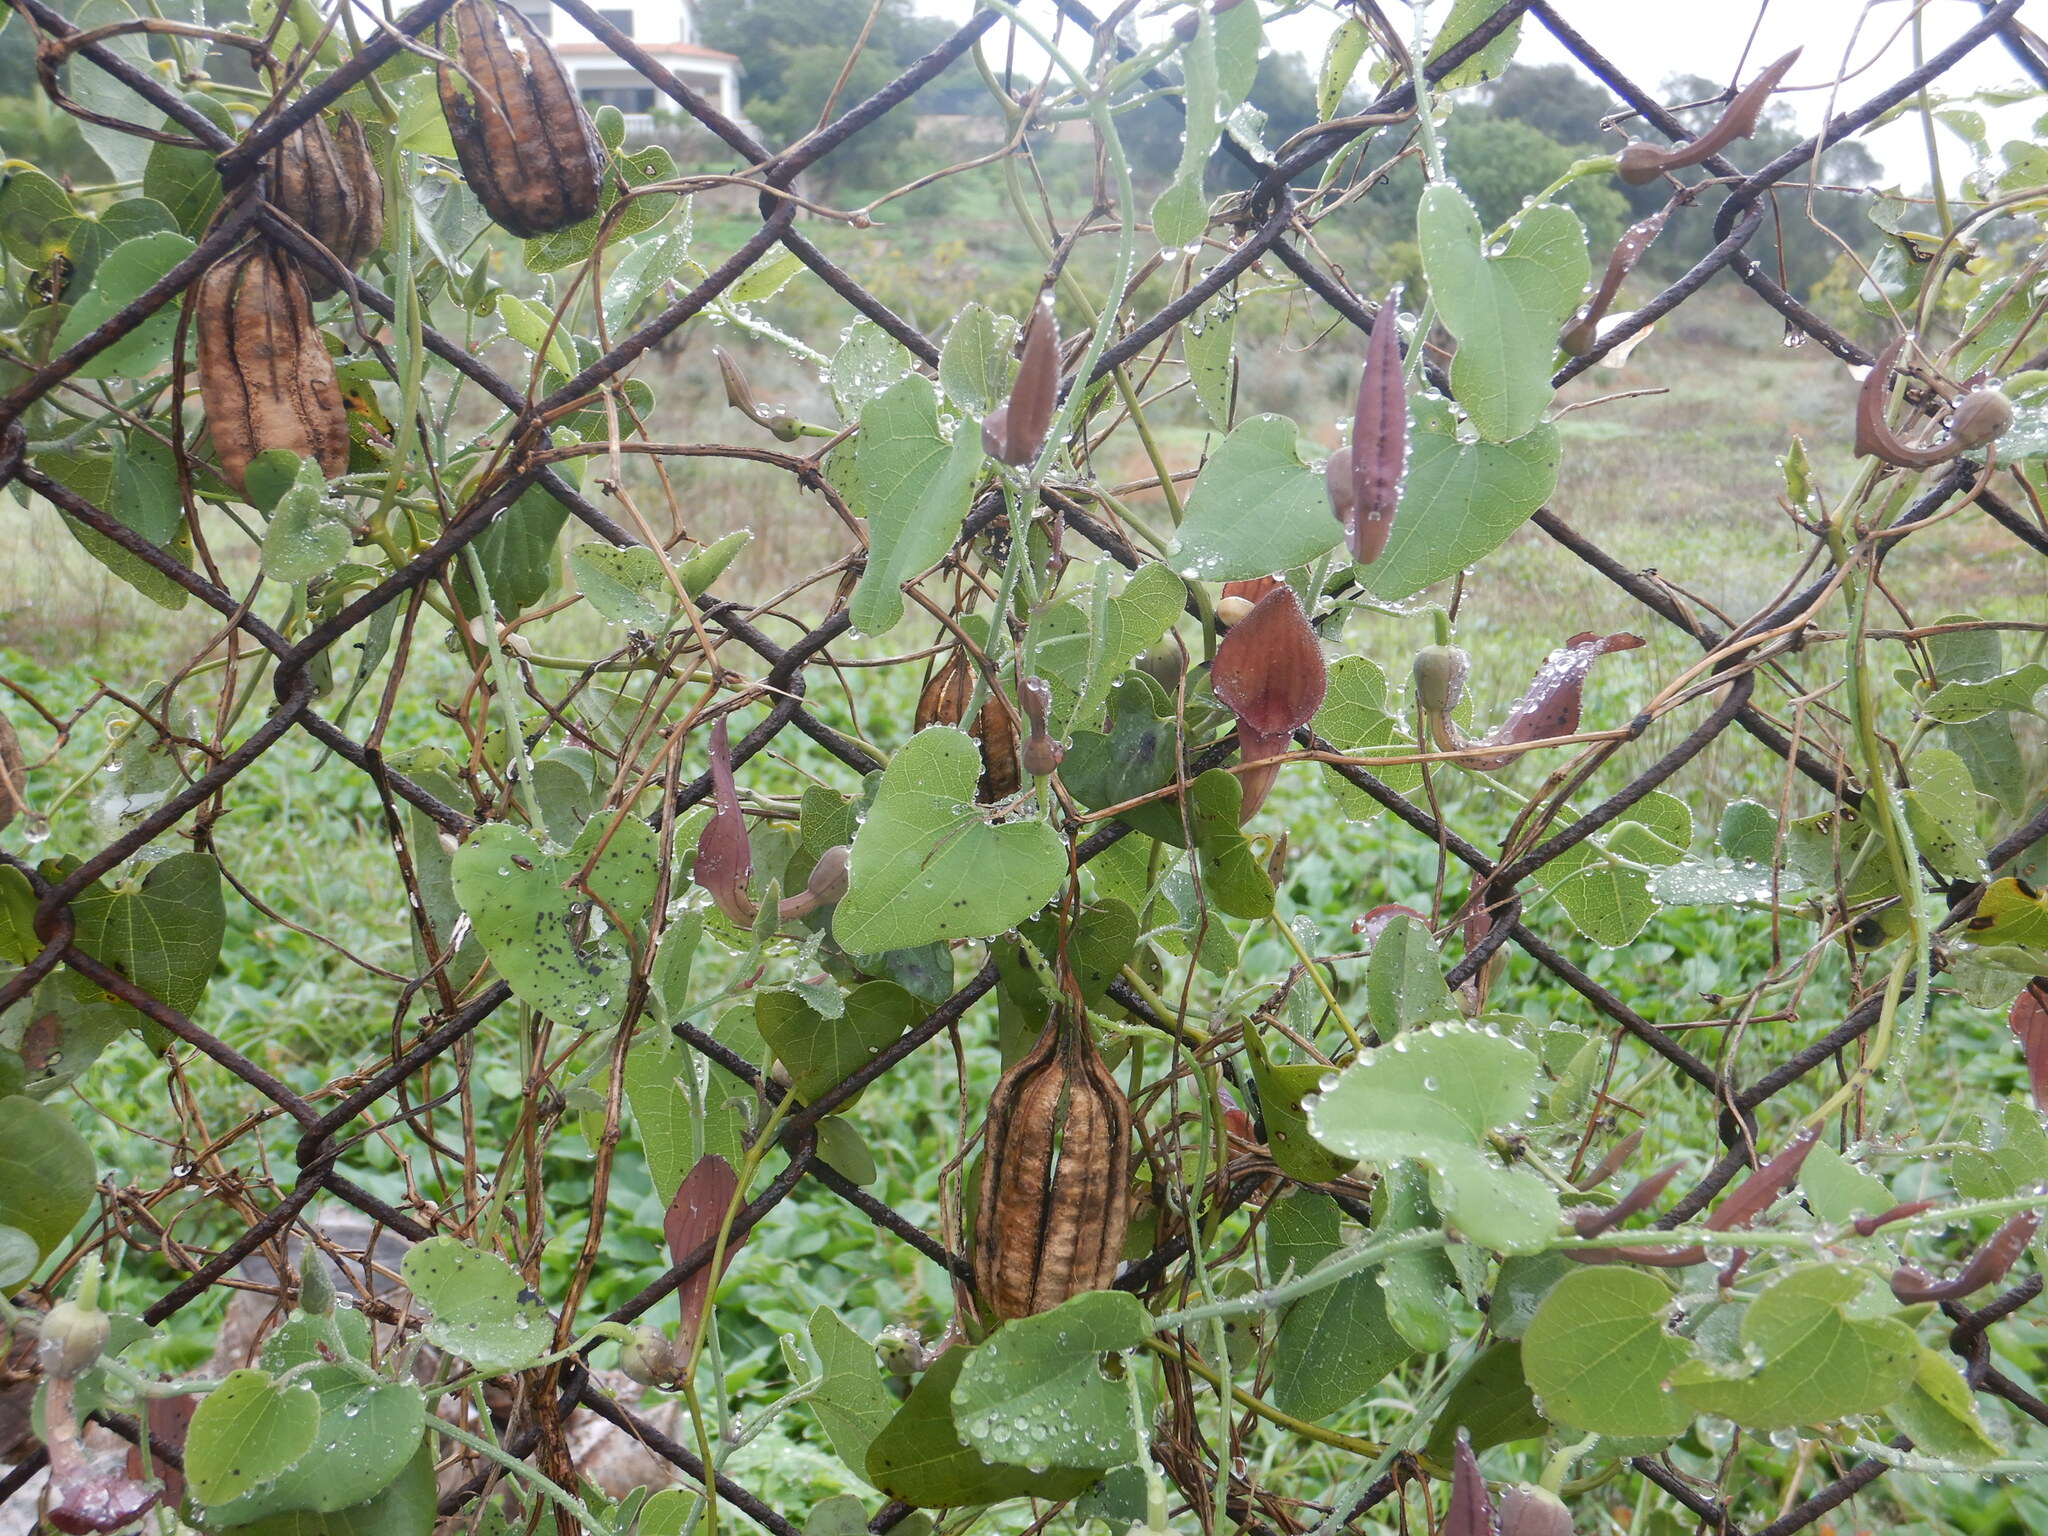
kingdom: Plantae
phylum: Tracheophyta
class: Magnoliopsida
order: Piperales
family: Aristolochiaceae
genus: Aristolochia
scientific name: Aristolochia baetica
